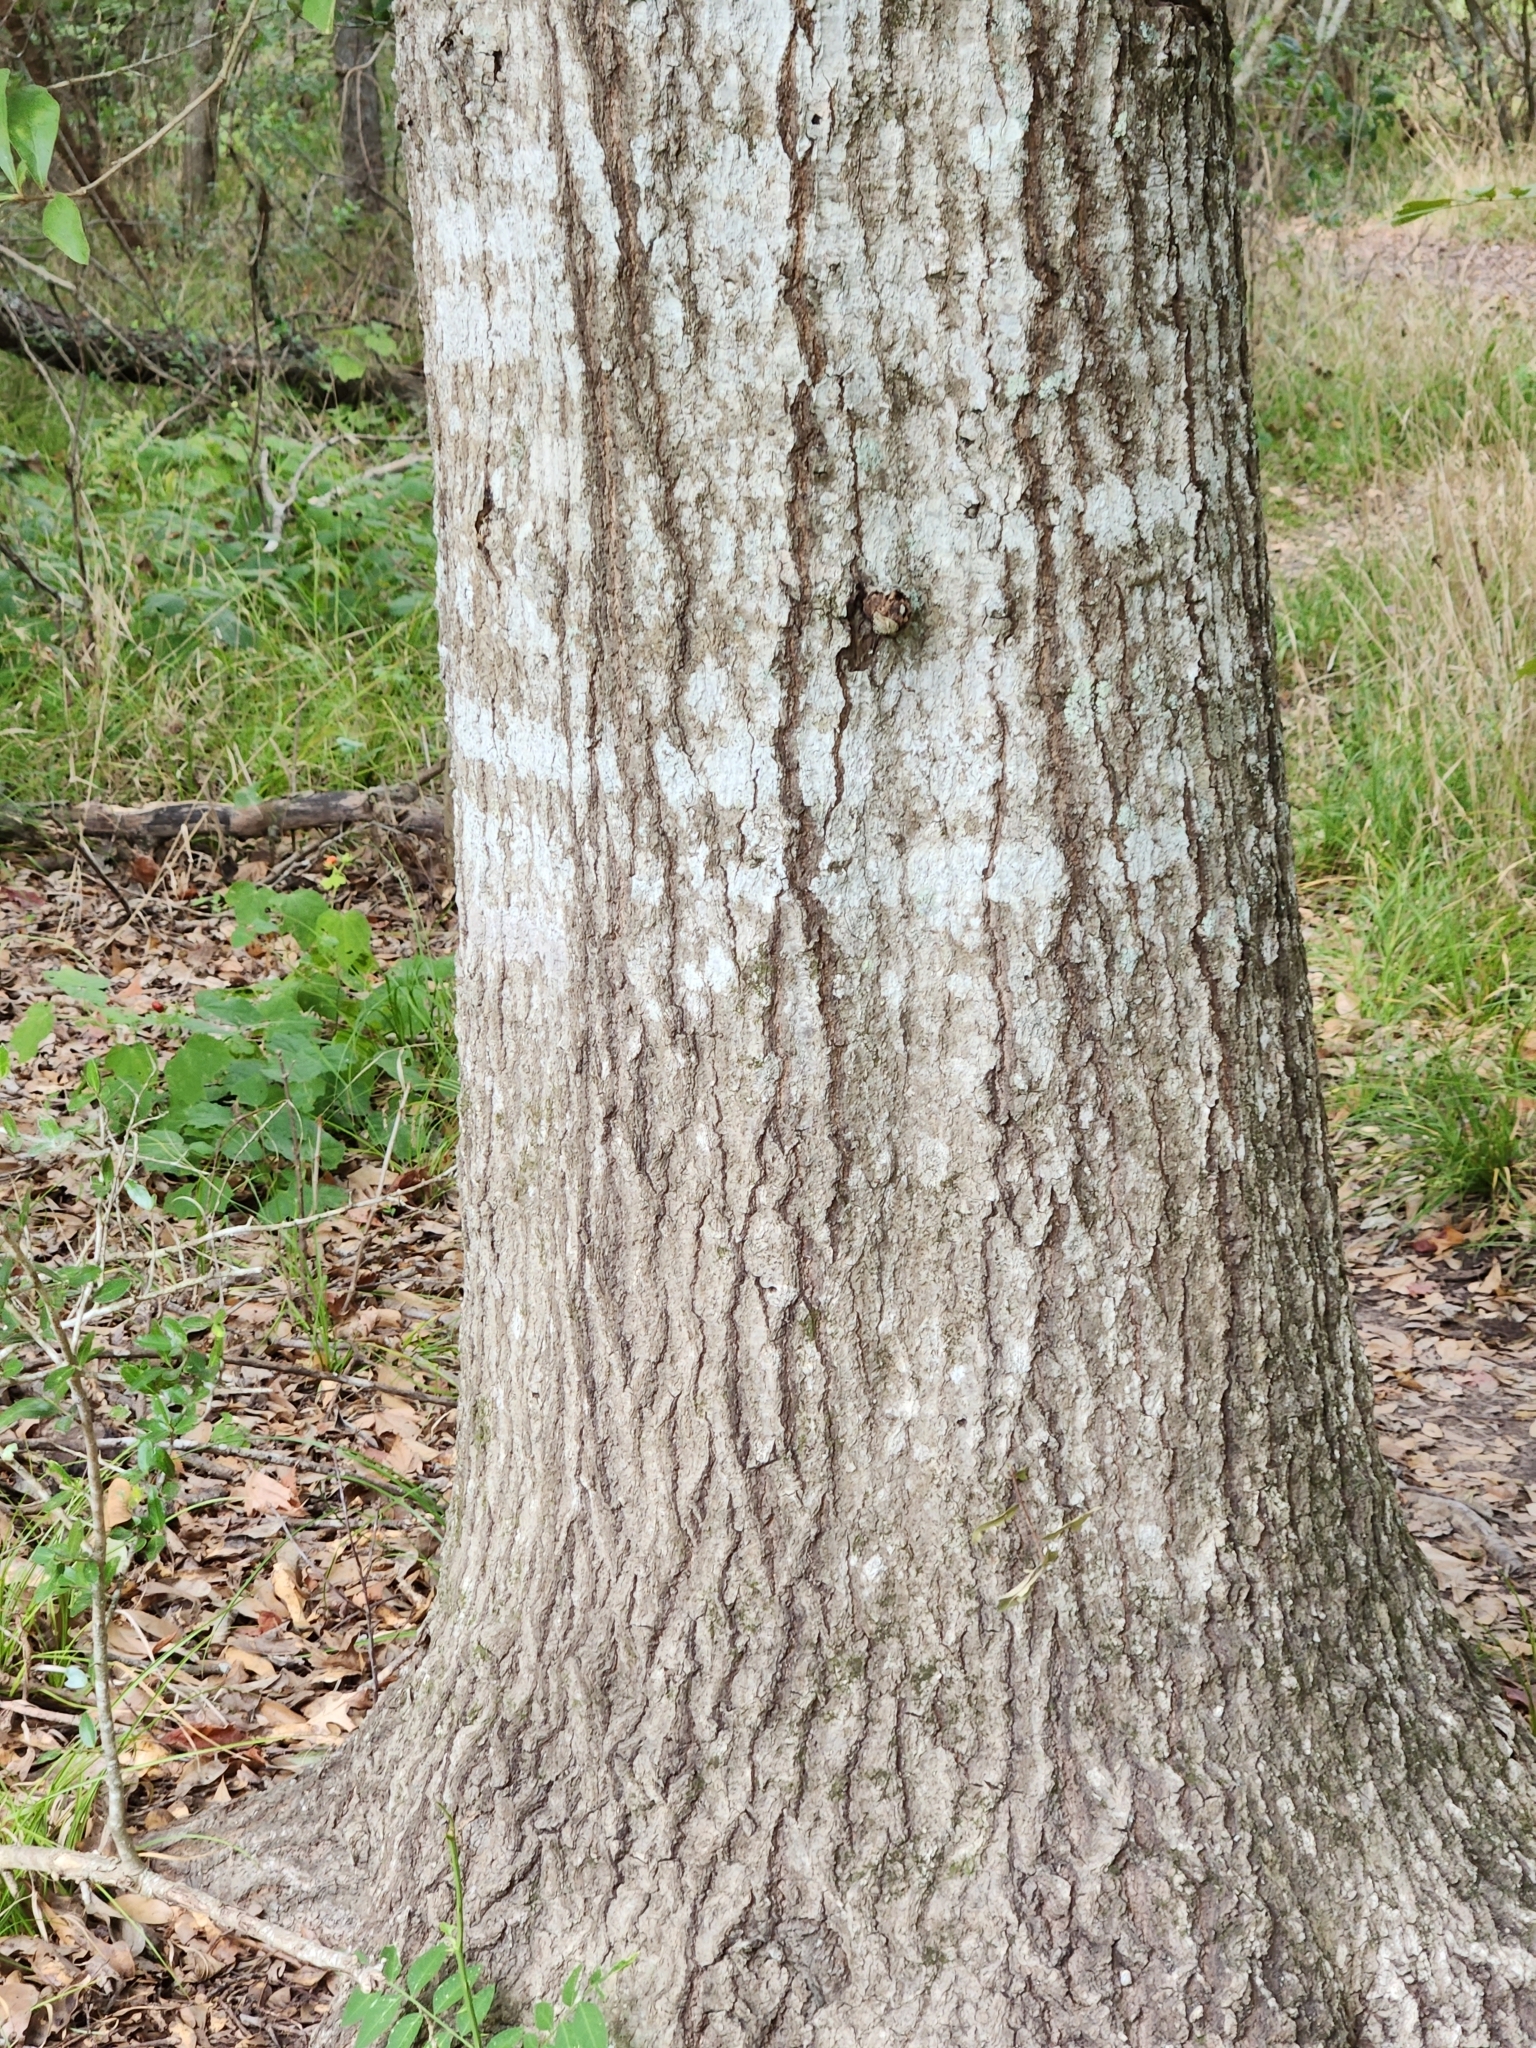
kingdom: Plantae
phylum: Tracheophyta
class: Magnoliopsida
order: Fagales
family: Fagaceae
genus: Quercus
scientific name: Quercus nigra
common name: Water oak
